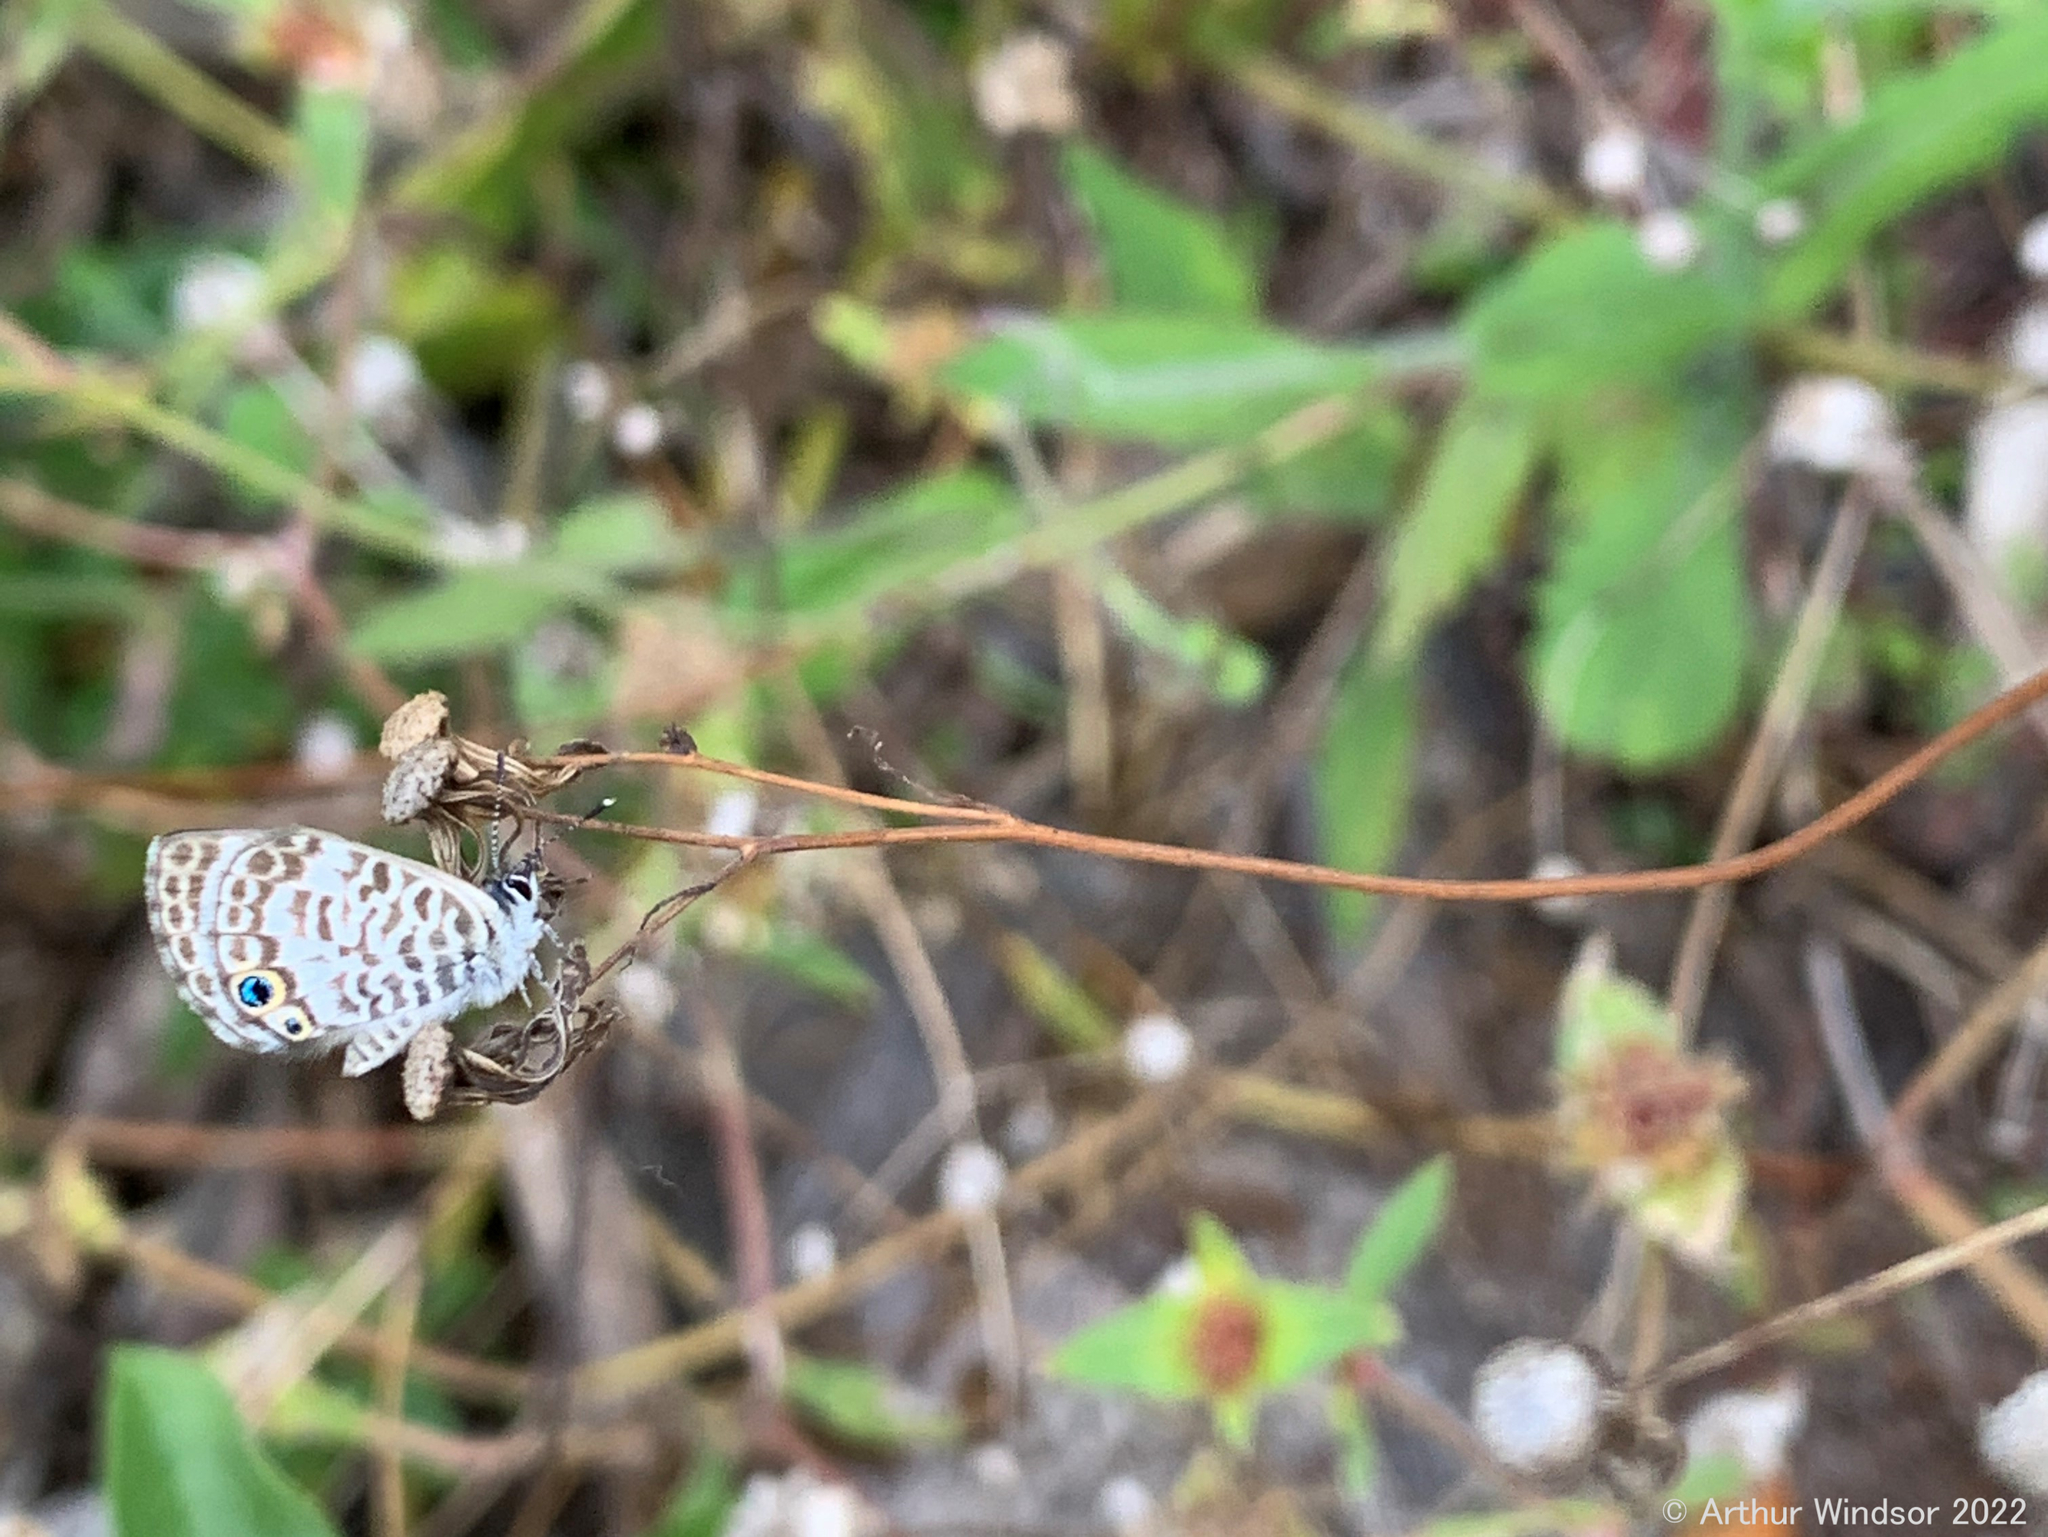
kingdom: Animalia
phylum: Arthropoda
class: Insecta
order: Lepidoptera
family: Lycaenidae
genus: Leptotes
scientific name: Leptotes cassius
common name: Cassius blue
